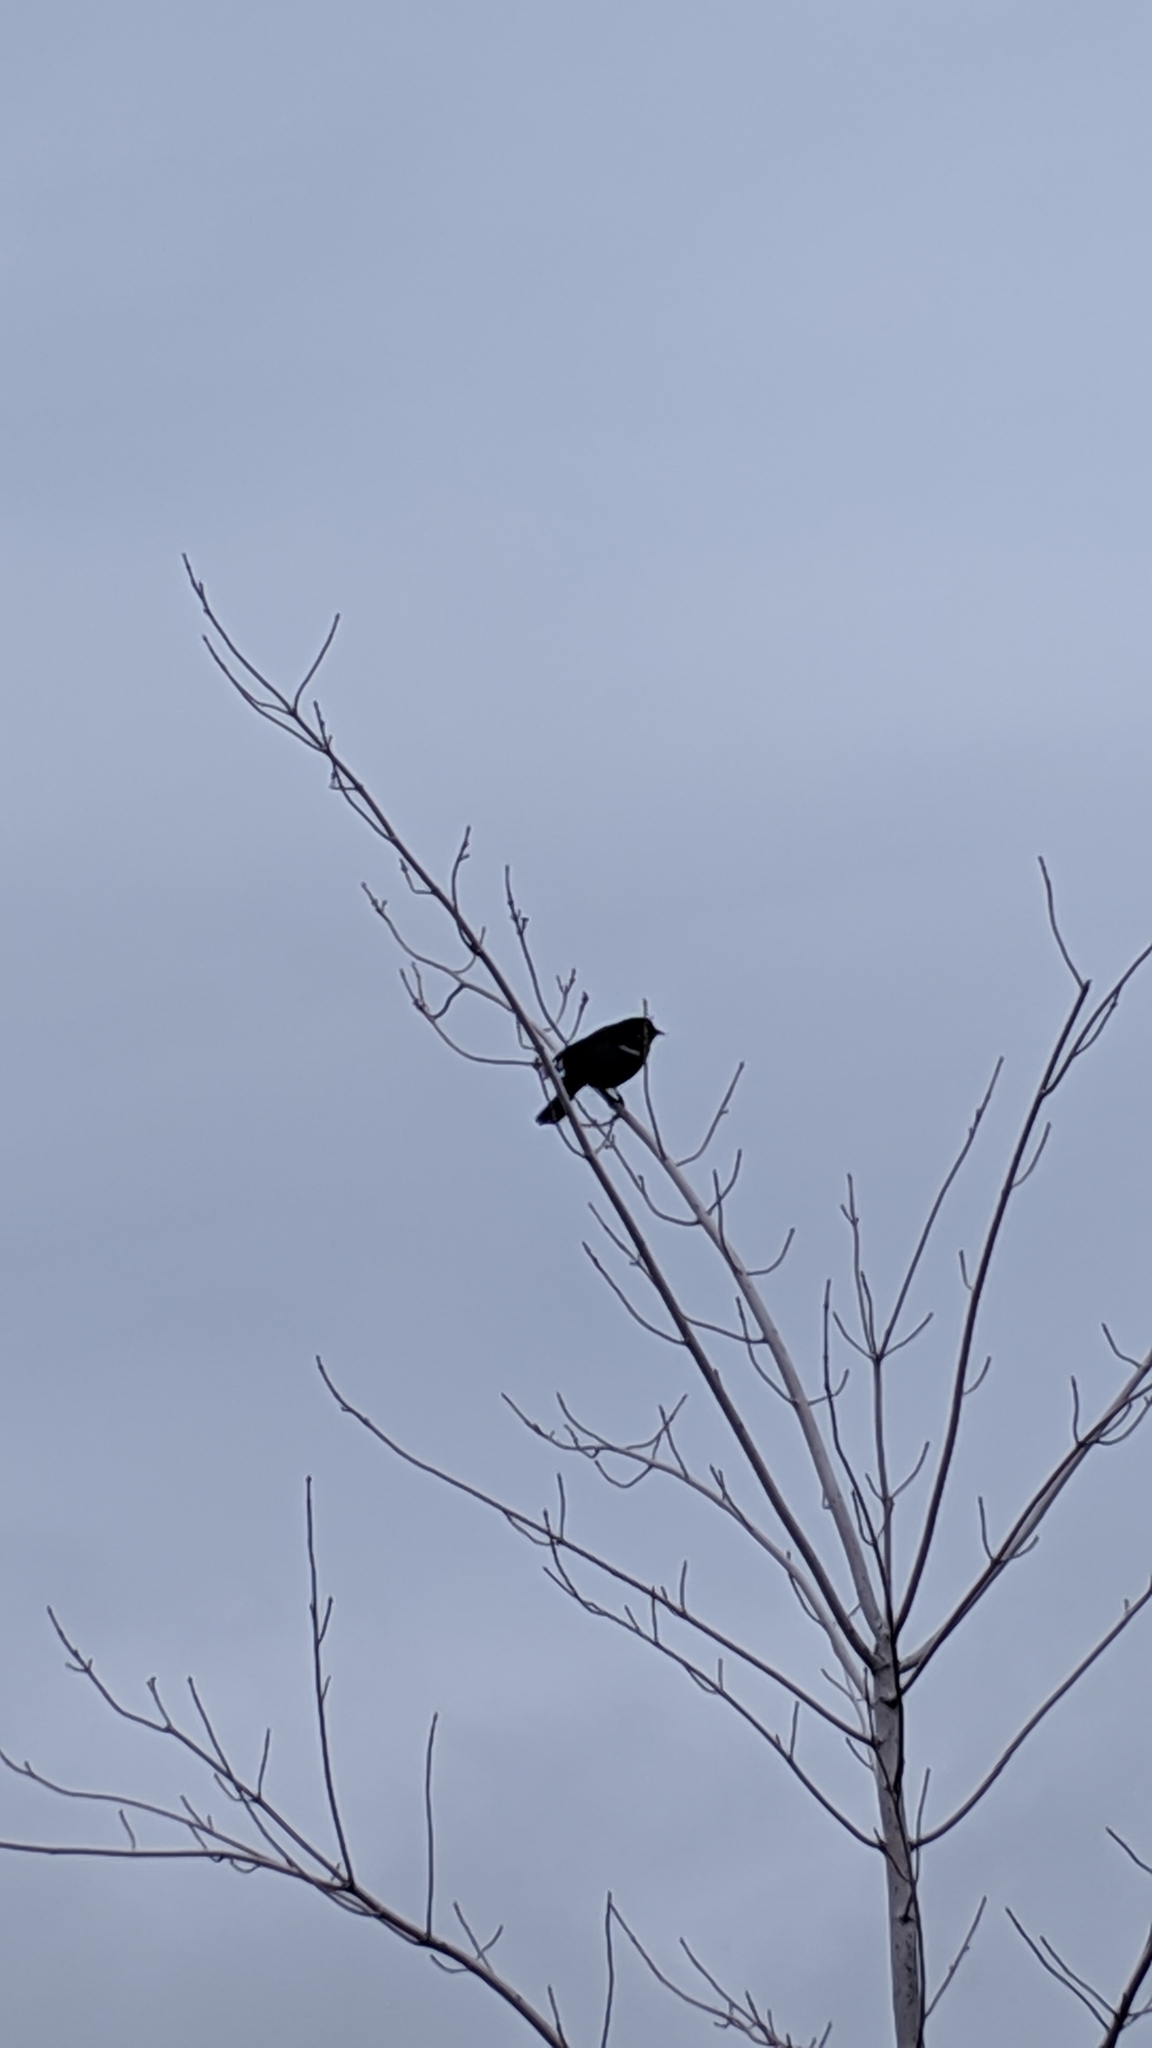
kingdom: Animalia
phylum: Chordata
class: Aves
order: Passeriformes
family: Icteridae
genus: Agelaius
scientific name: Agelaius phoeniceus
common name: Red-winged blackbird
